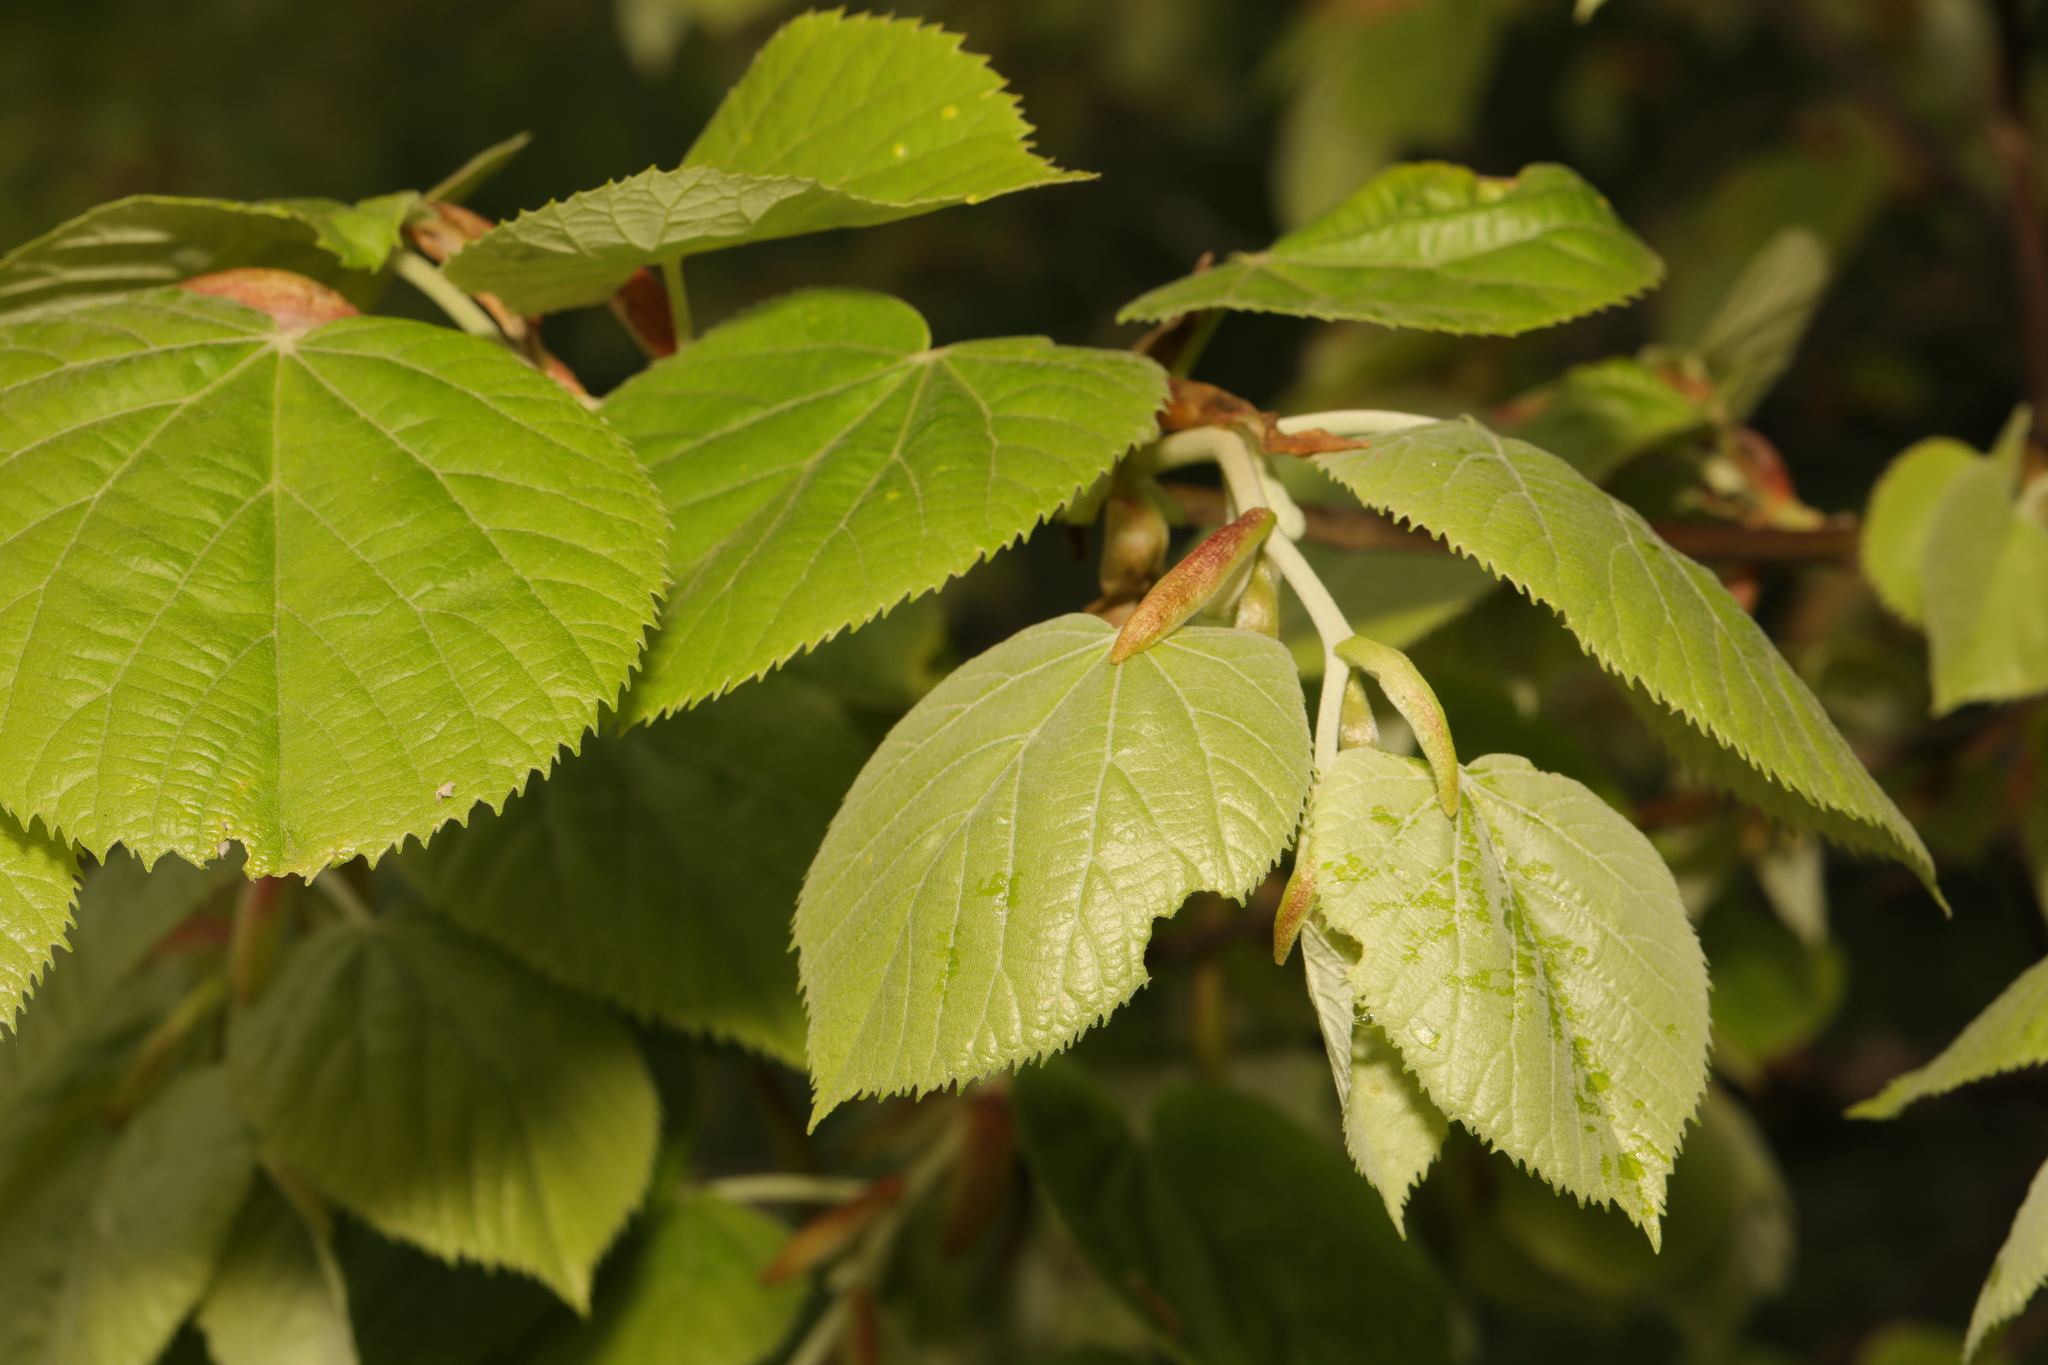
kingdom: Plantae
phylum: Tracheophyta
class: Magnoliopsida
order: Malvales
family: Malvaceae
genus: Tilia
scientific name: Tilia tomentosa
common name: Silver lime
